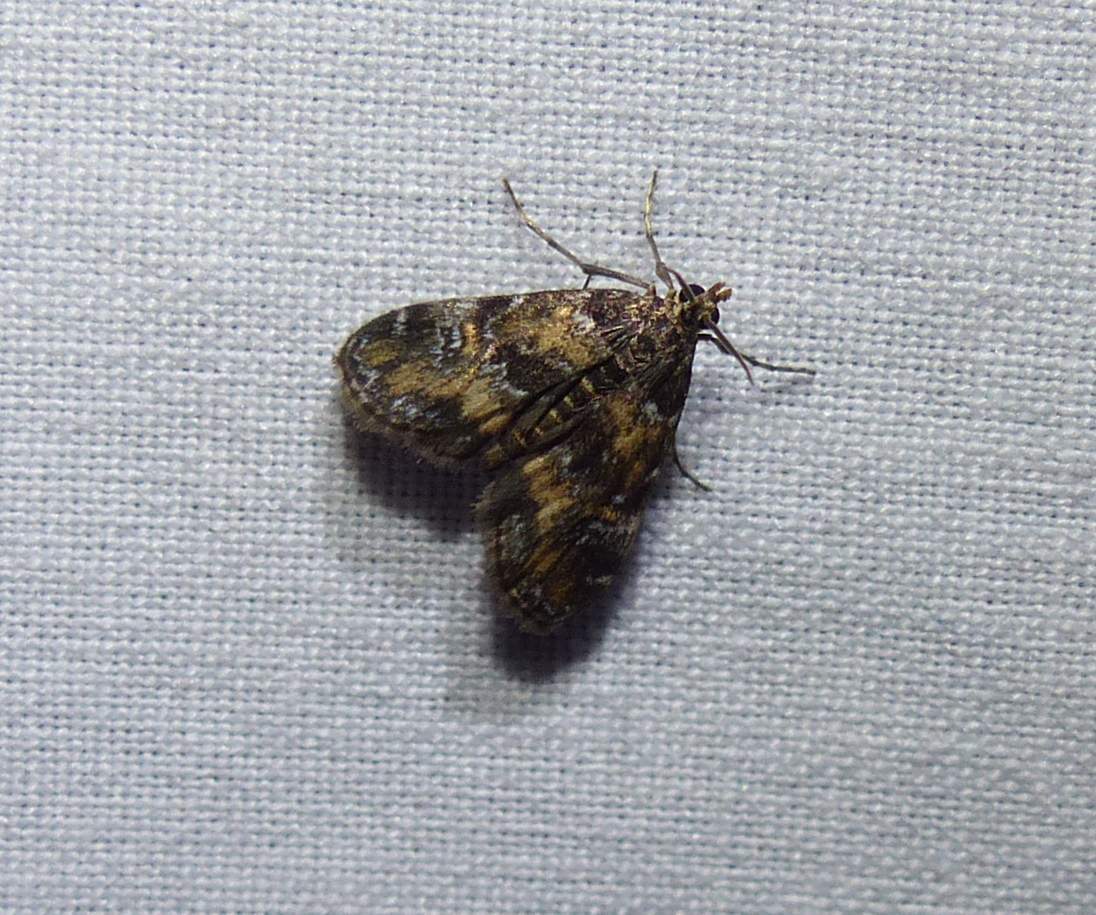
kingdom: Animalia
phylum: Arthropoda
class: Insecta
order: Lepidoptera
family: Crambidae
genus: Elophila
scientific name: Elophila obliteralis
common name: Waterlily leafcutter moth
